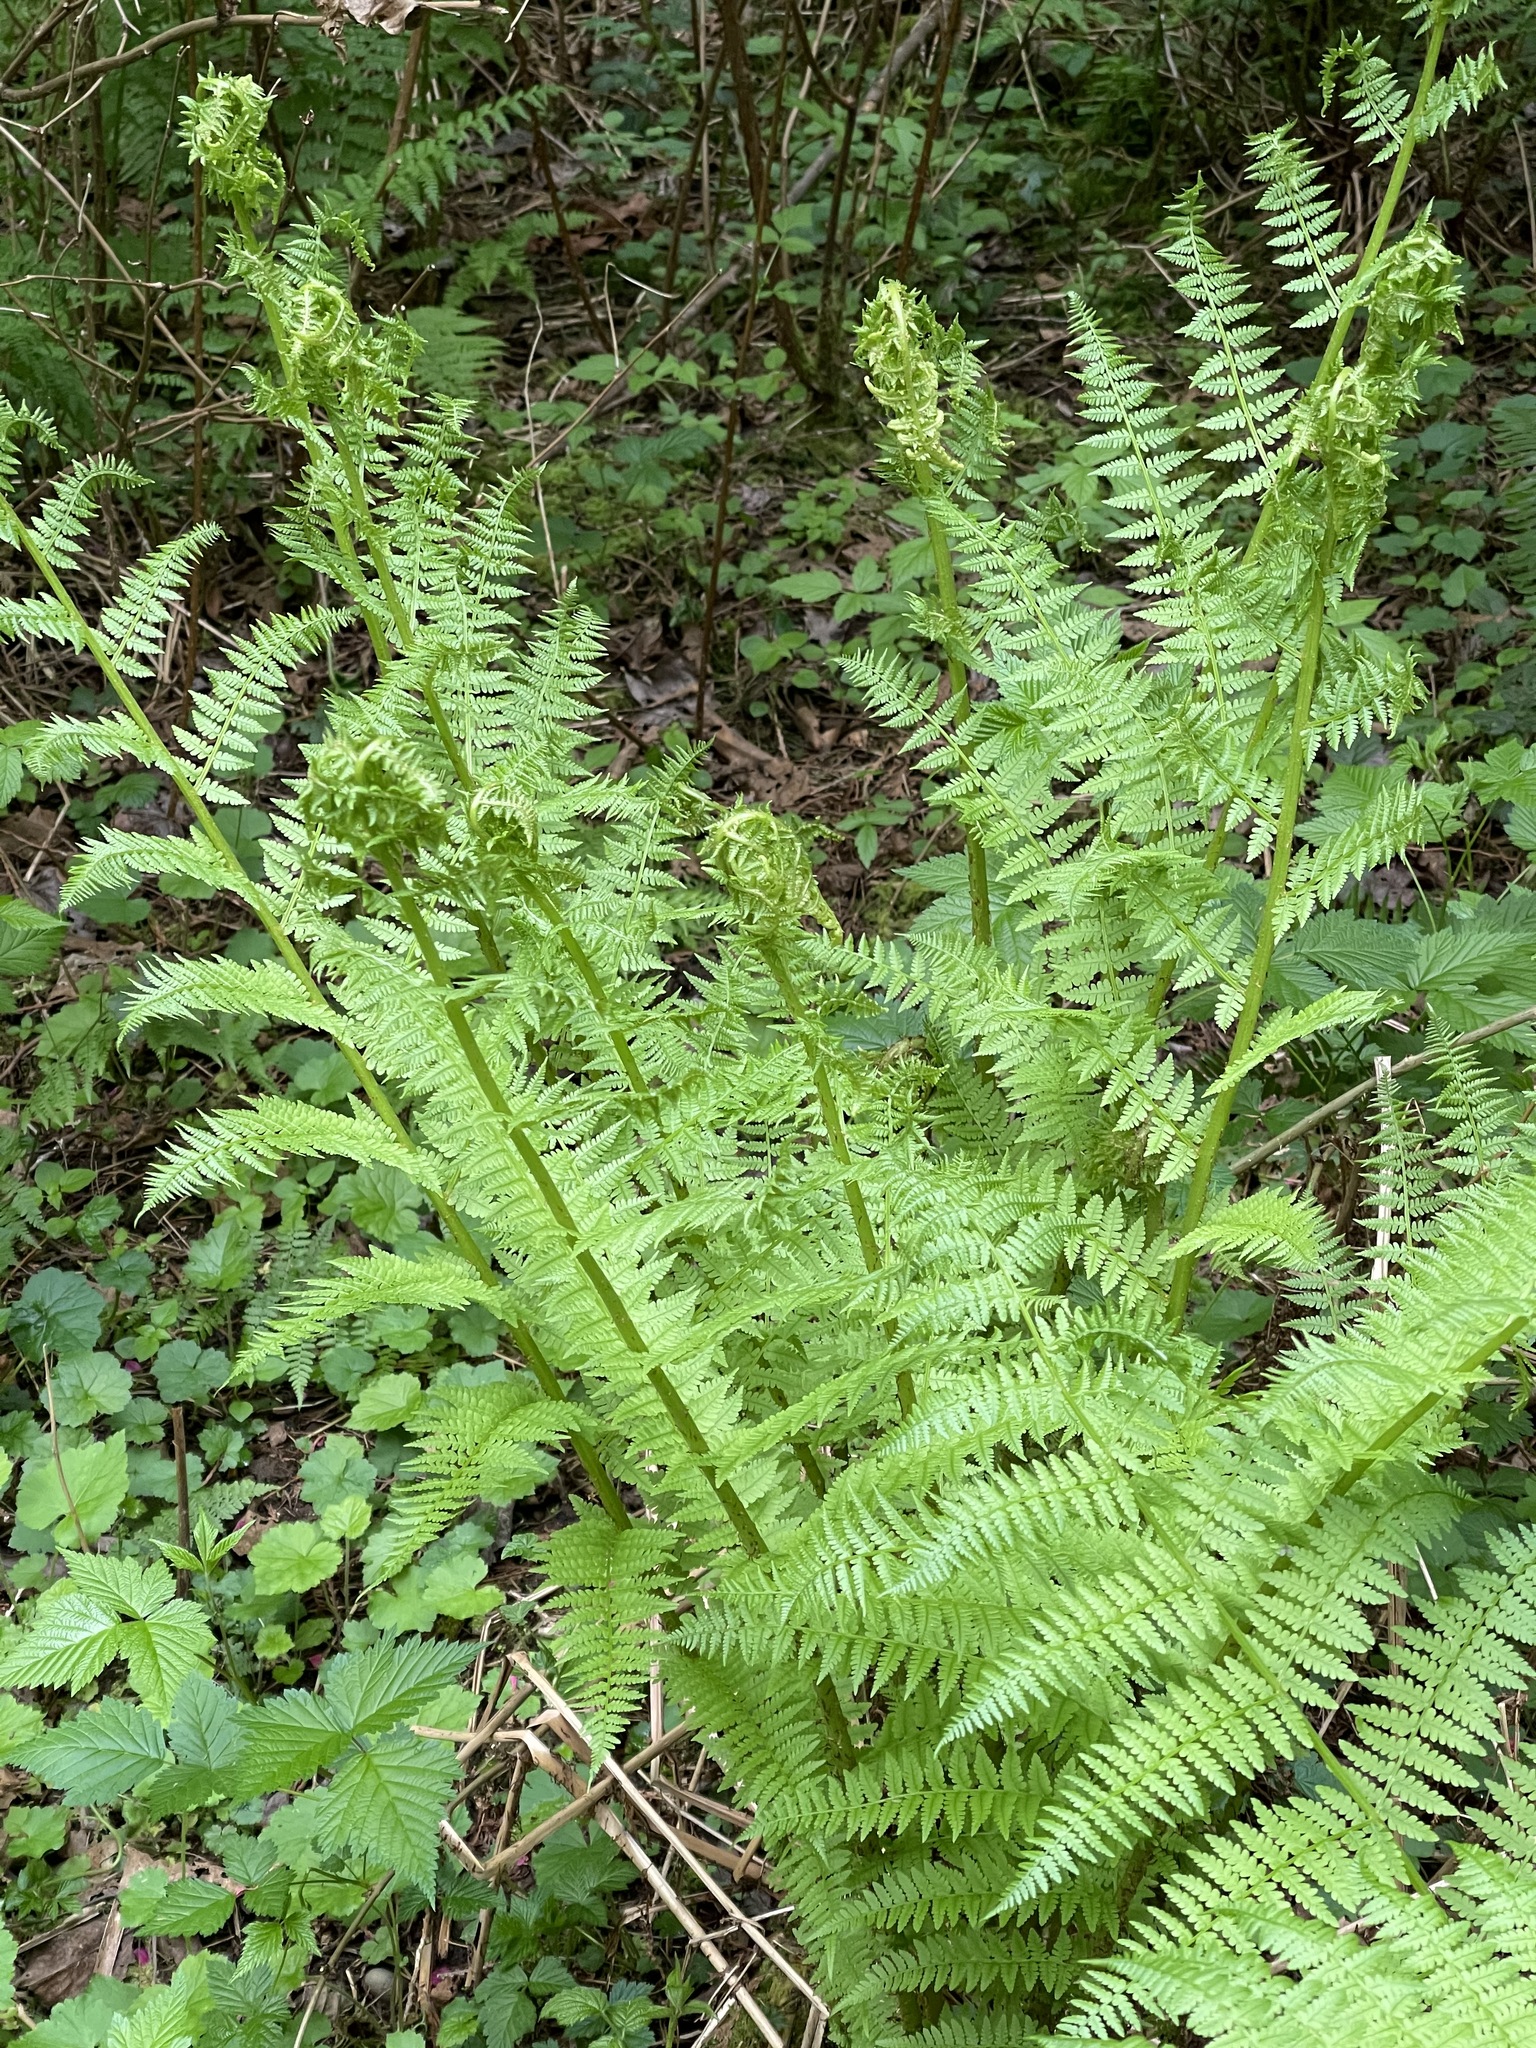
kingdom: Plantae
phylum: Tracheophyta
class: Polypodiopsida
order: Polypodiales
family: Athyriaceae
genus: Athyrium
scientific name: Athyrium filix-femina
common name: Lady fern
